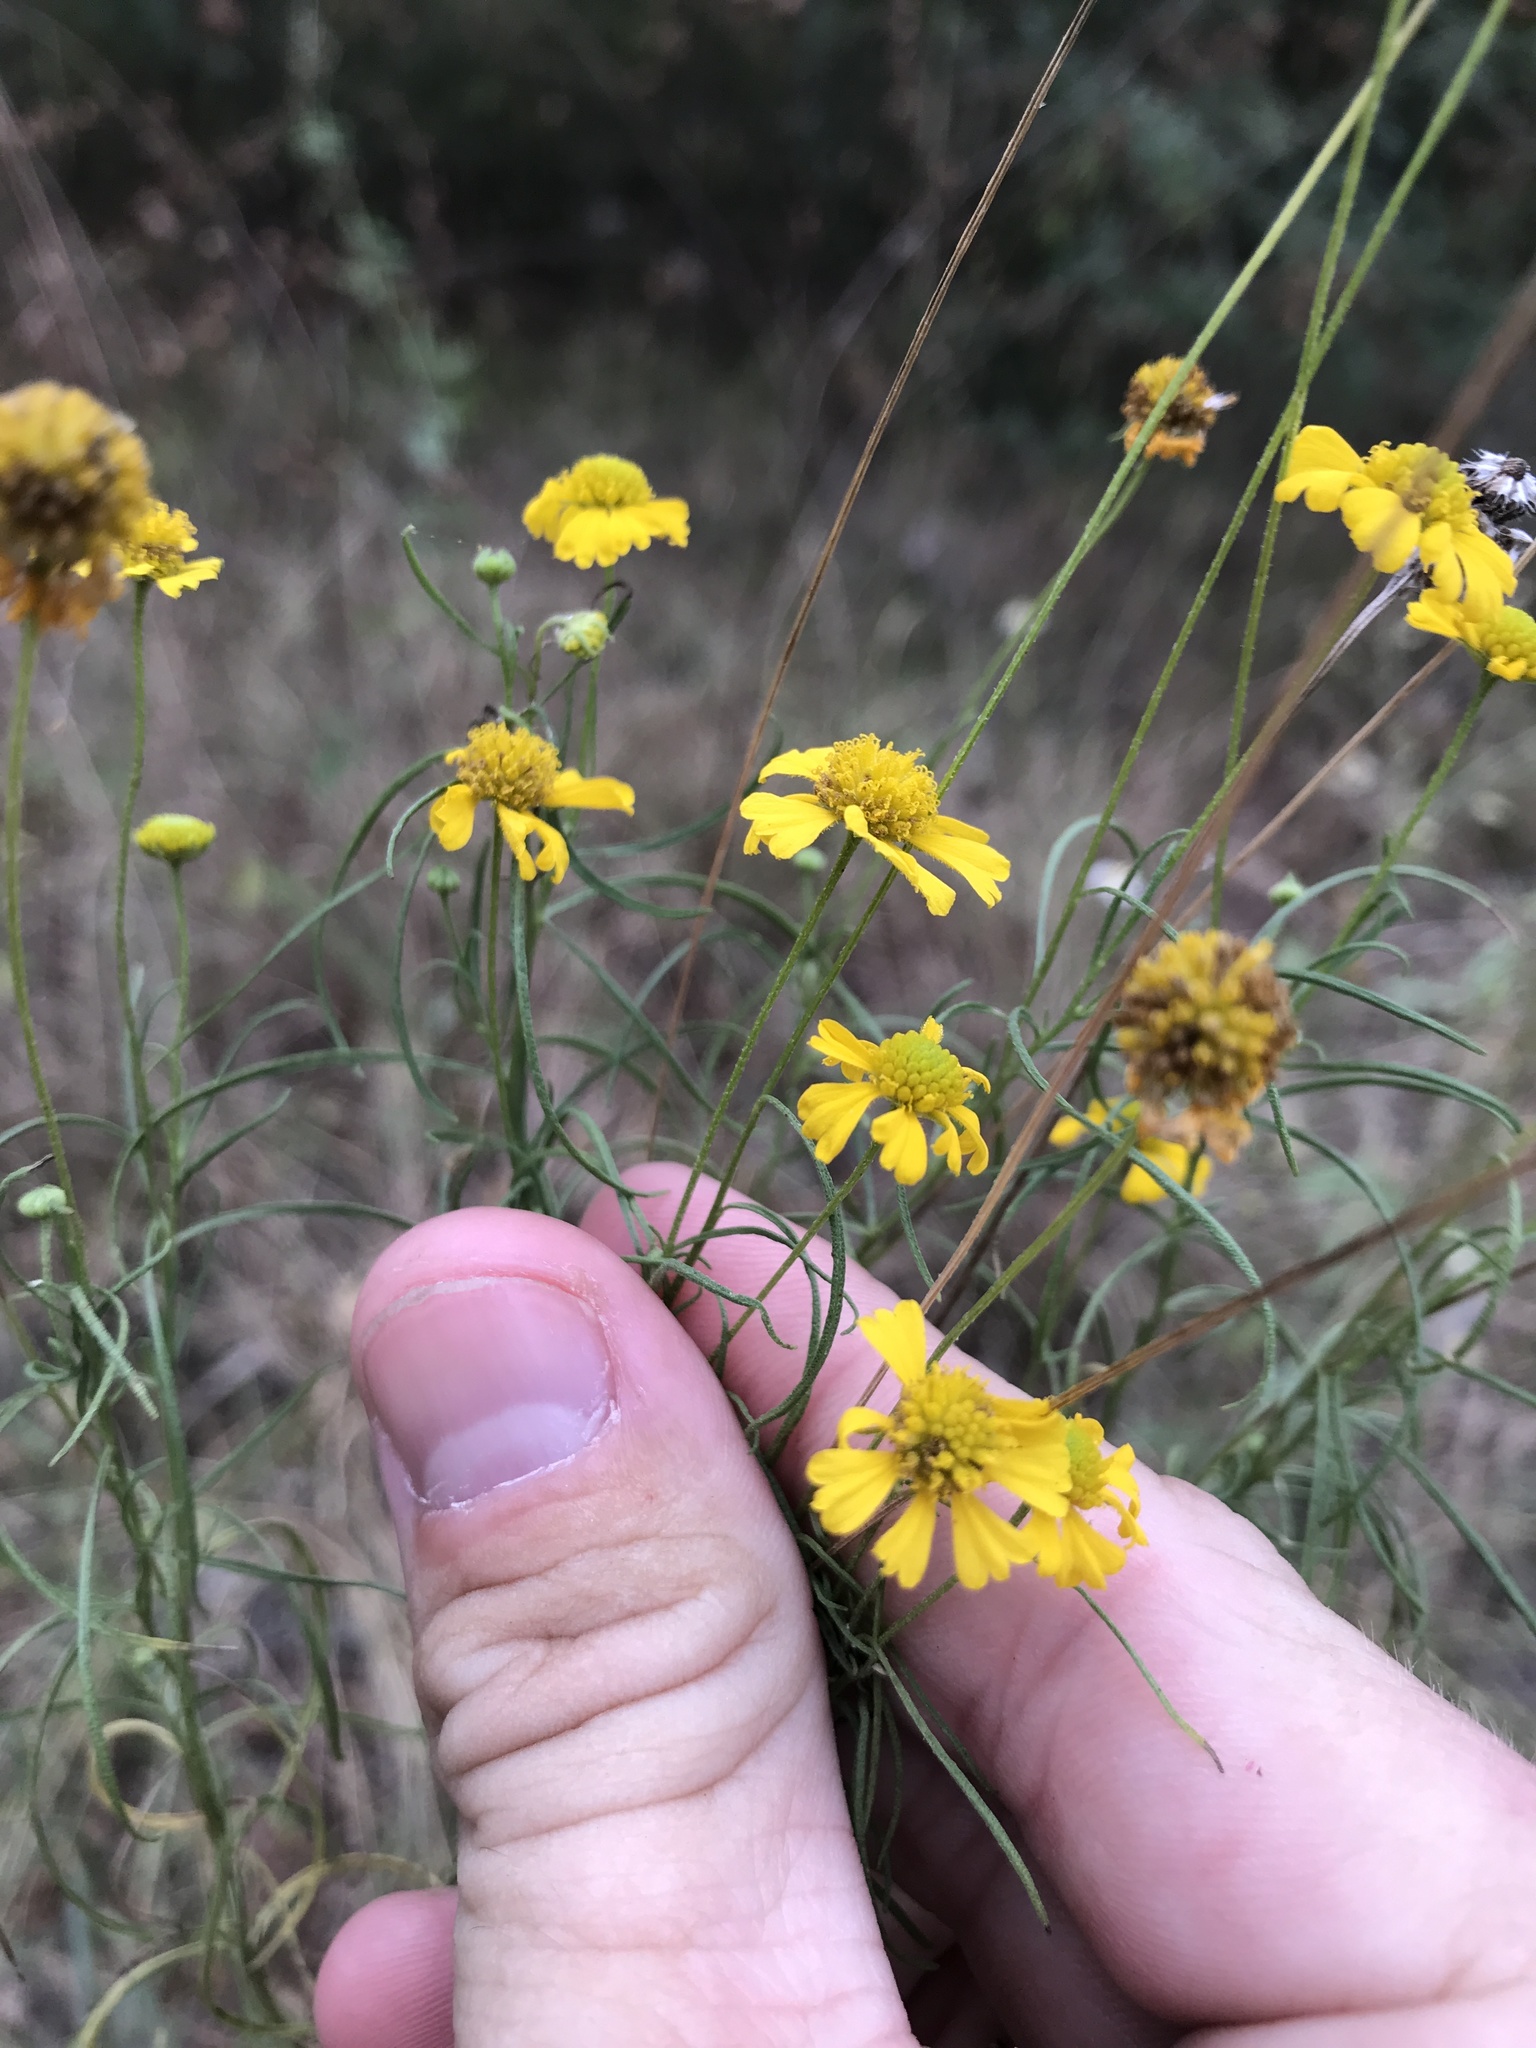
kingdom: Plantae
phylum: Tracheophyta
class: Magnoliopsida
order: Asterales
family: Asteraceae
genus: Helenium
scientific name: Helenium amarum
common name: Bitter sneezeweed
